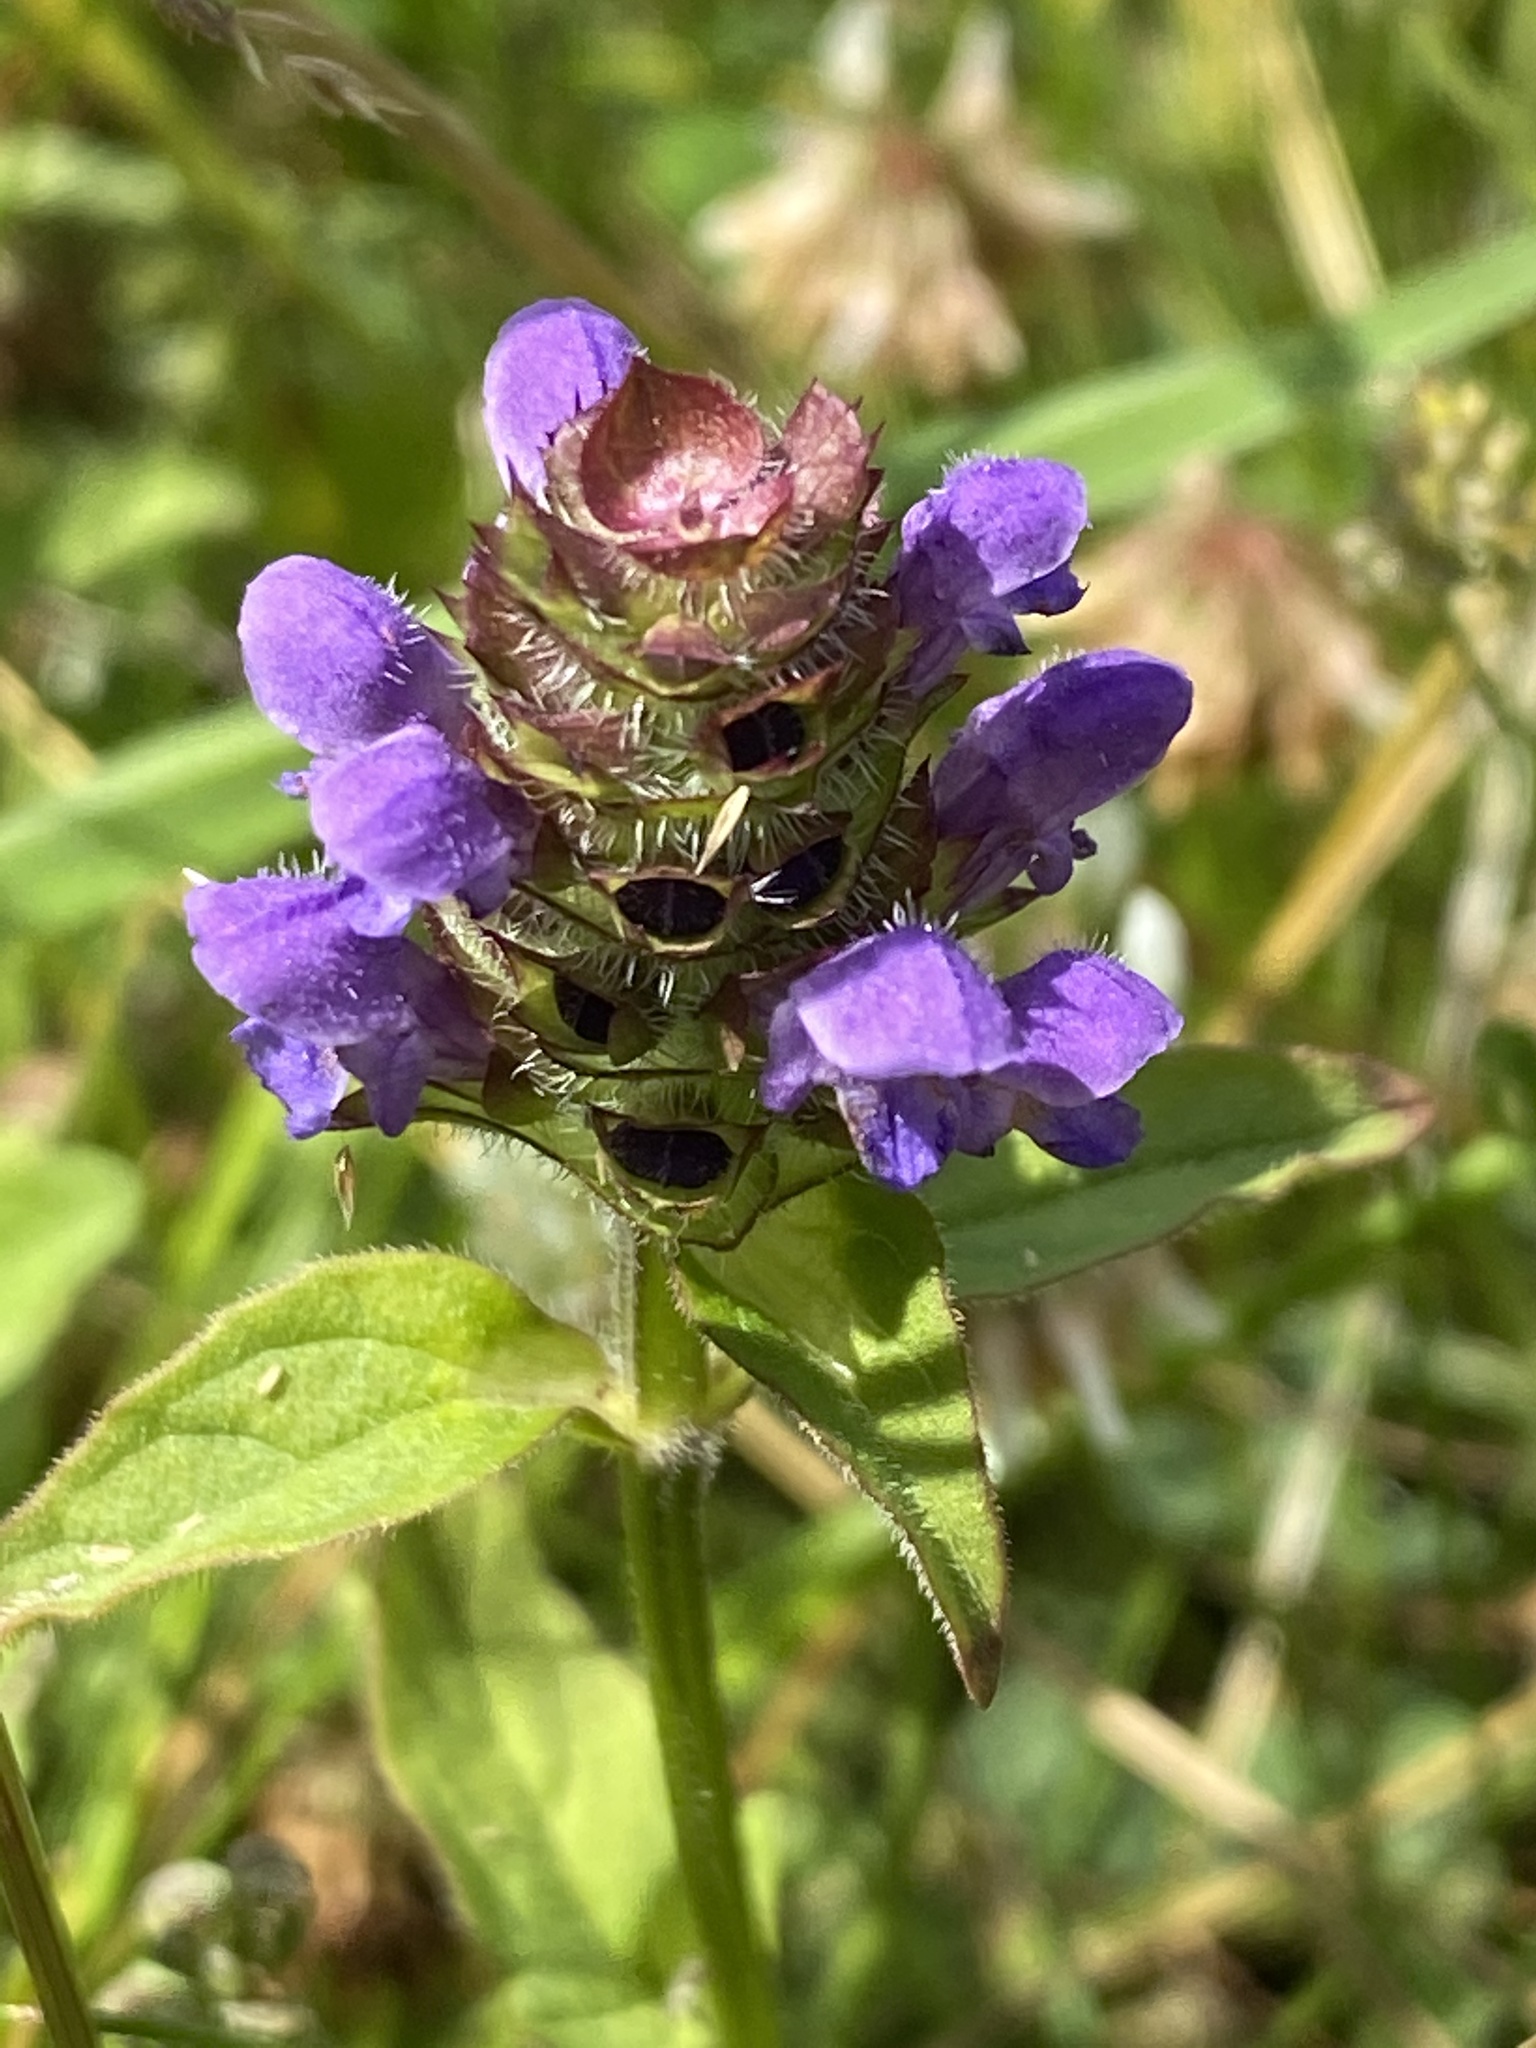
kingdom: Plantae
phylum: Tracheophyta
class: Magnoliopsida
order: Lamiales
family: Lamiaceae
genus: Prunella
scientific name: Prunella vulgaris
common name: Heal-all
